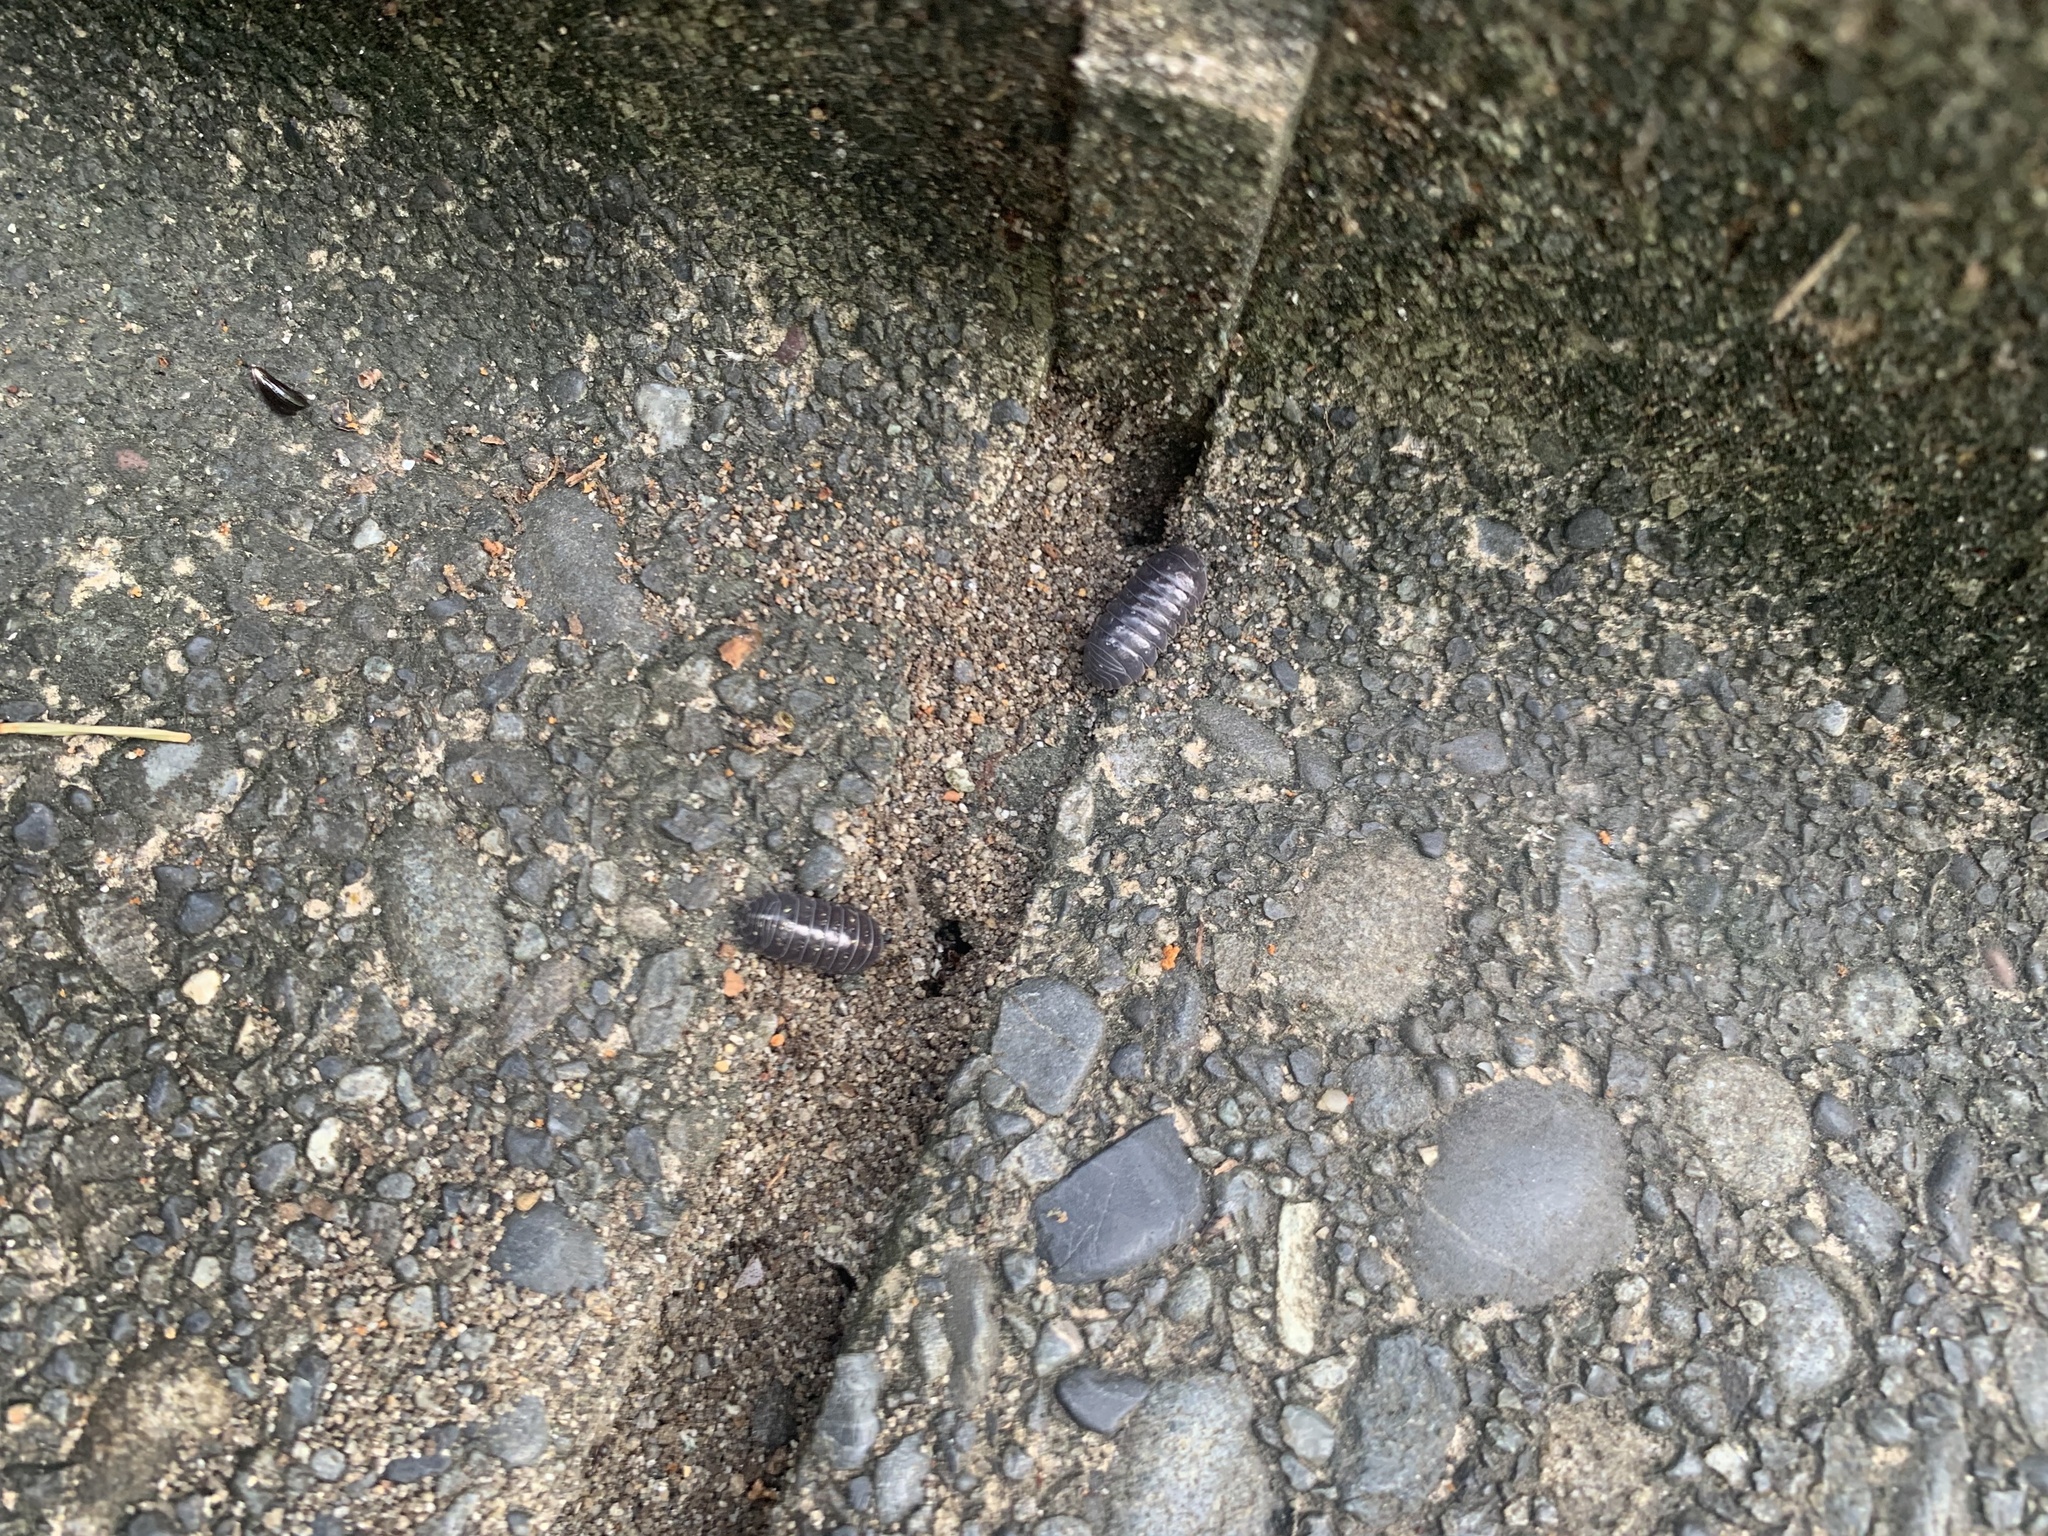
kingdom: Animalia
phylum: Arthropoda
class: Malacostraca
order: Isopoda
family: Armadillidiidae
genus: Armadillidium
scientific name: Armadillidium vulgare
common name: Common pill woodlouse
